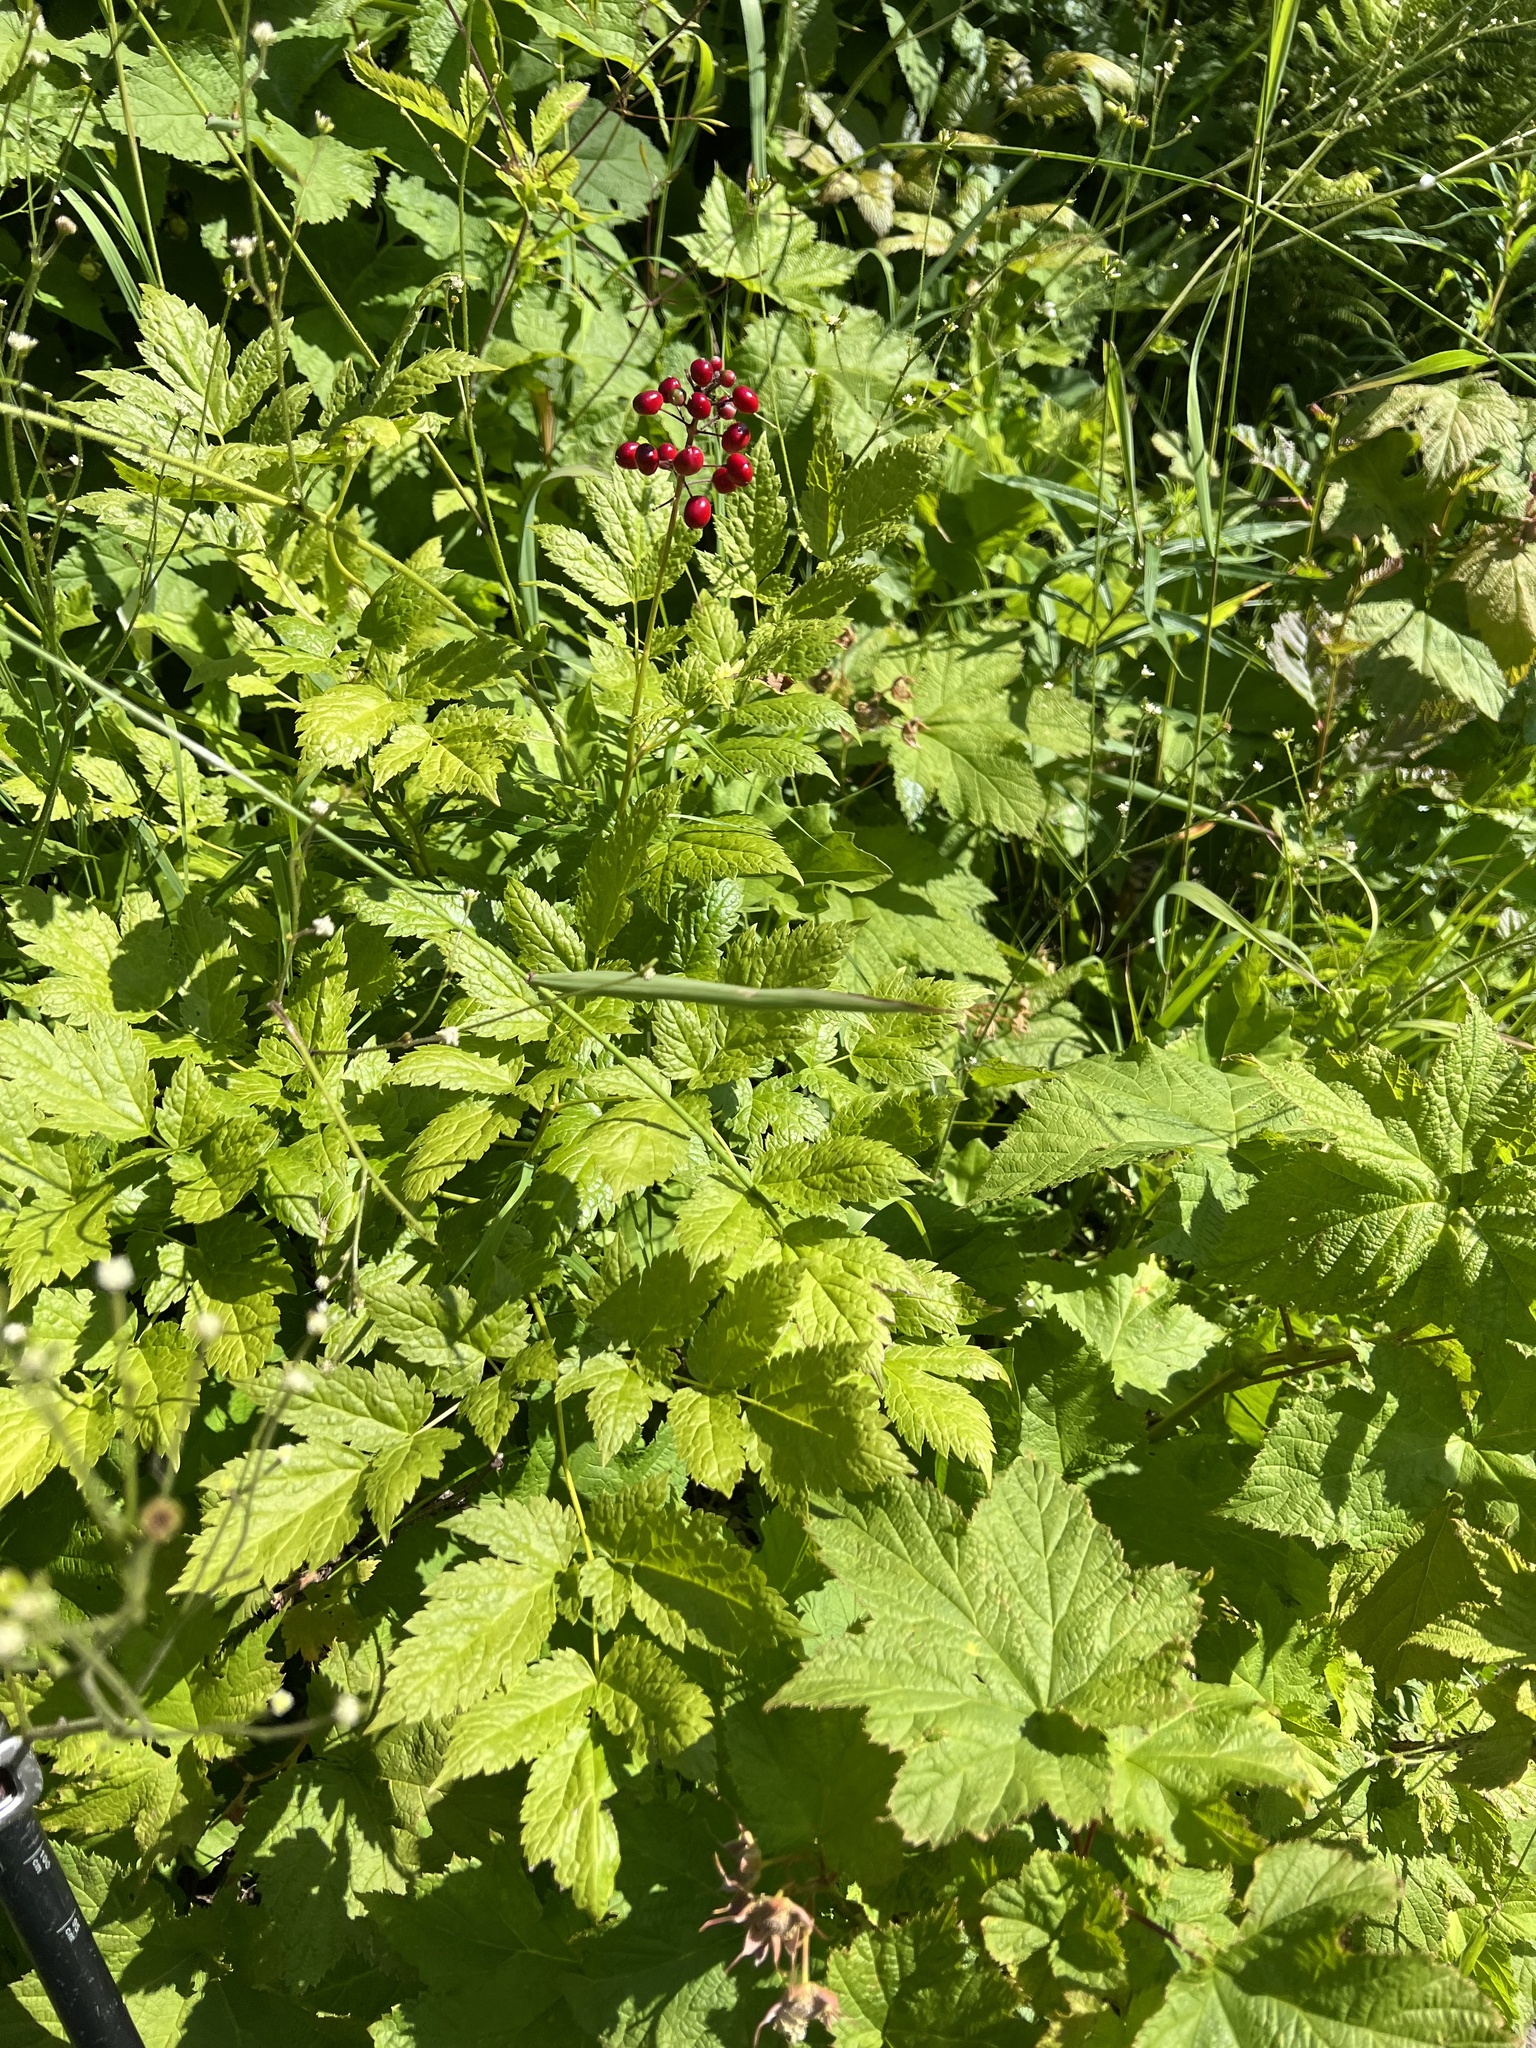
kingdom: Plantae
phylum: Tracheophyta
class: Magnoliopsida
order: Ranunculales
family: Ranunculaceae
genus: Actaea
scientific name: Actaea rubra
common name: Red baneberry
